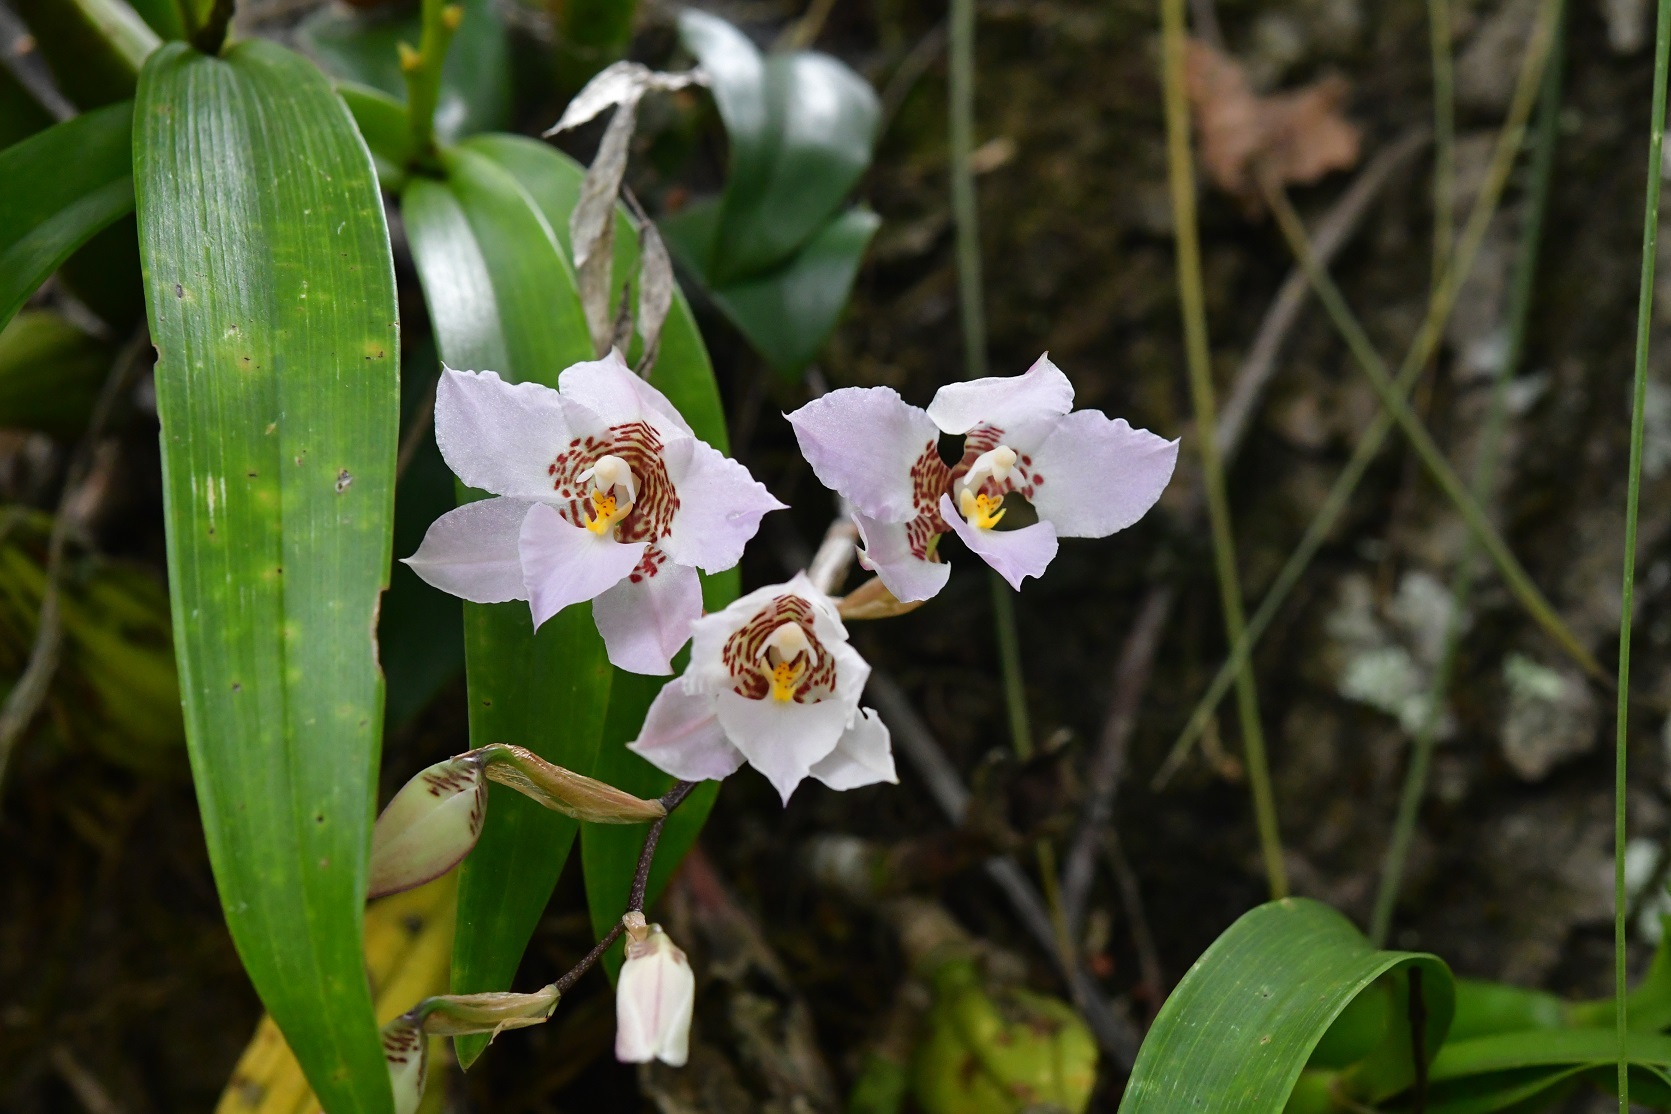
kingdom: Plantae
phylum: Tracheophyta
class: Liliopsida
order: Asparagales
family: Orchidaceae
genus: Rhynchostele
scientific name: Rhynchostele cervantesii
